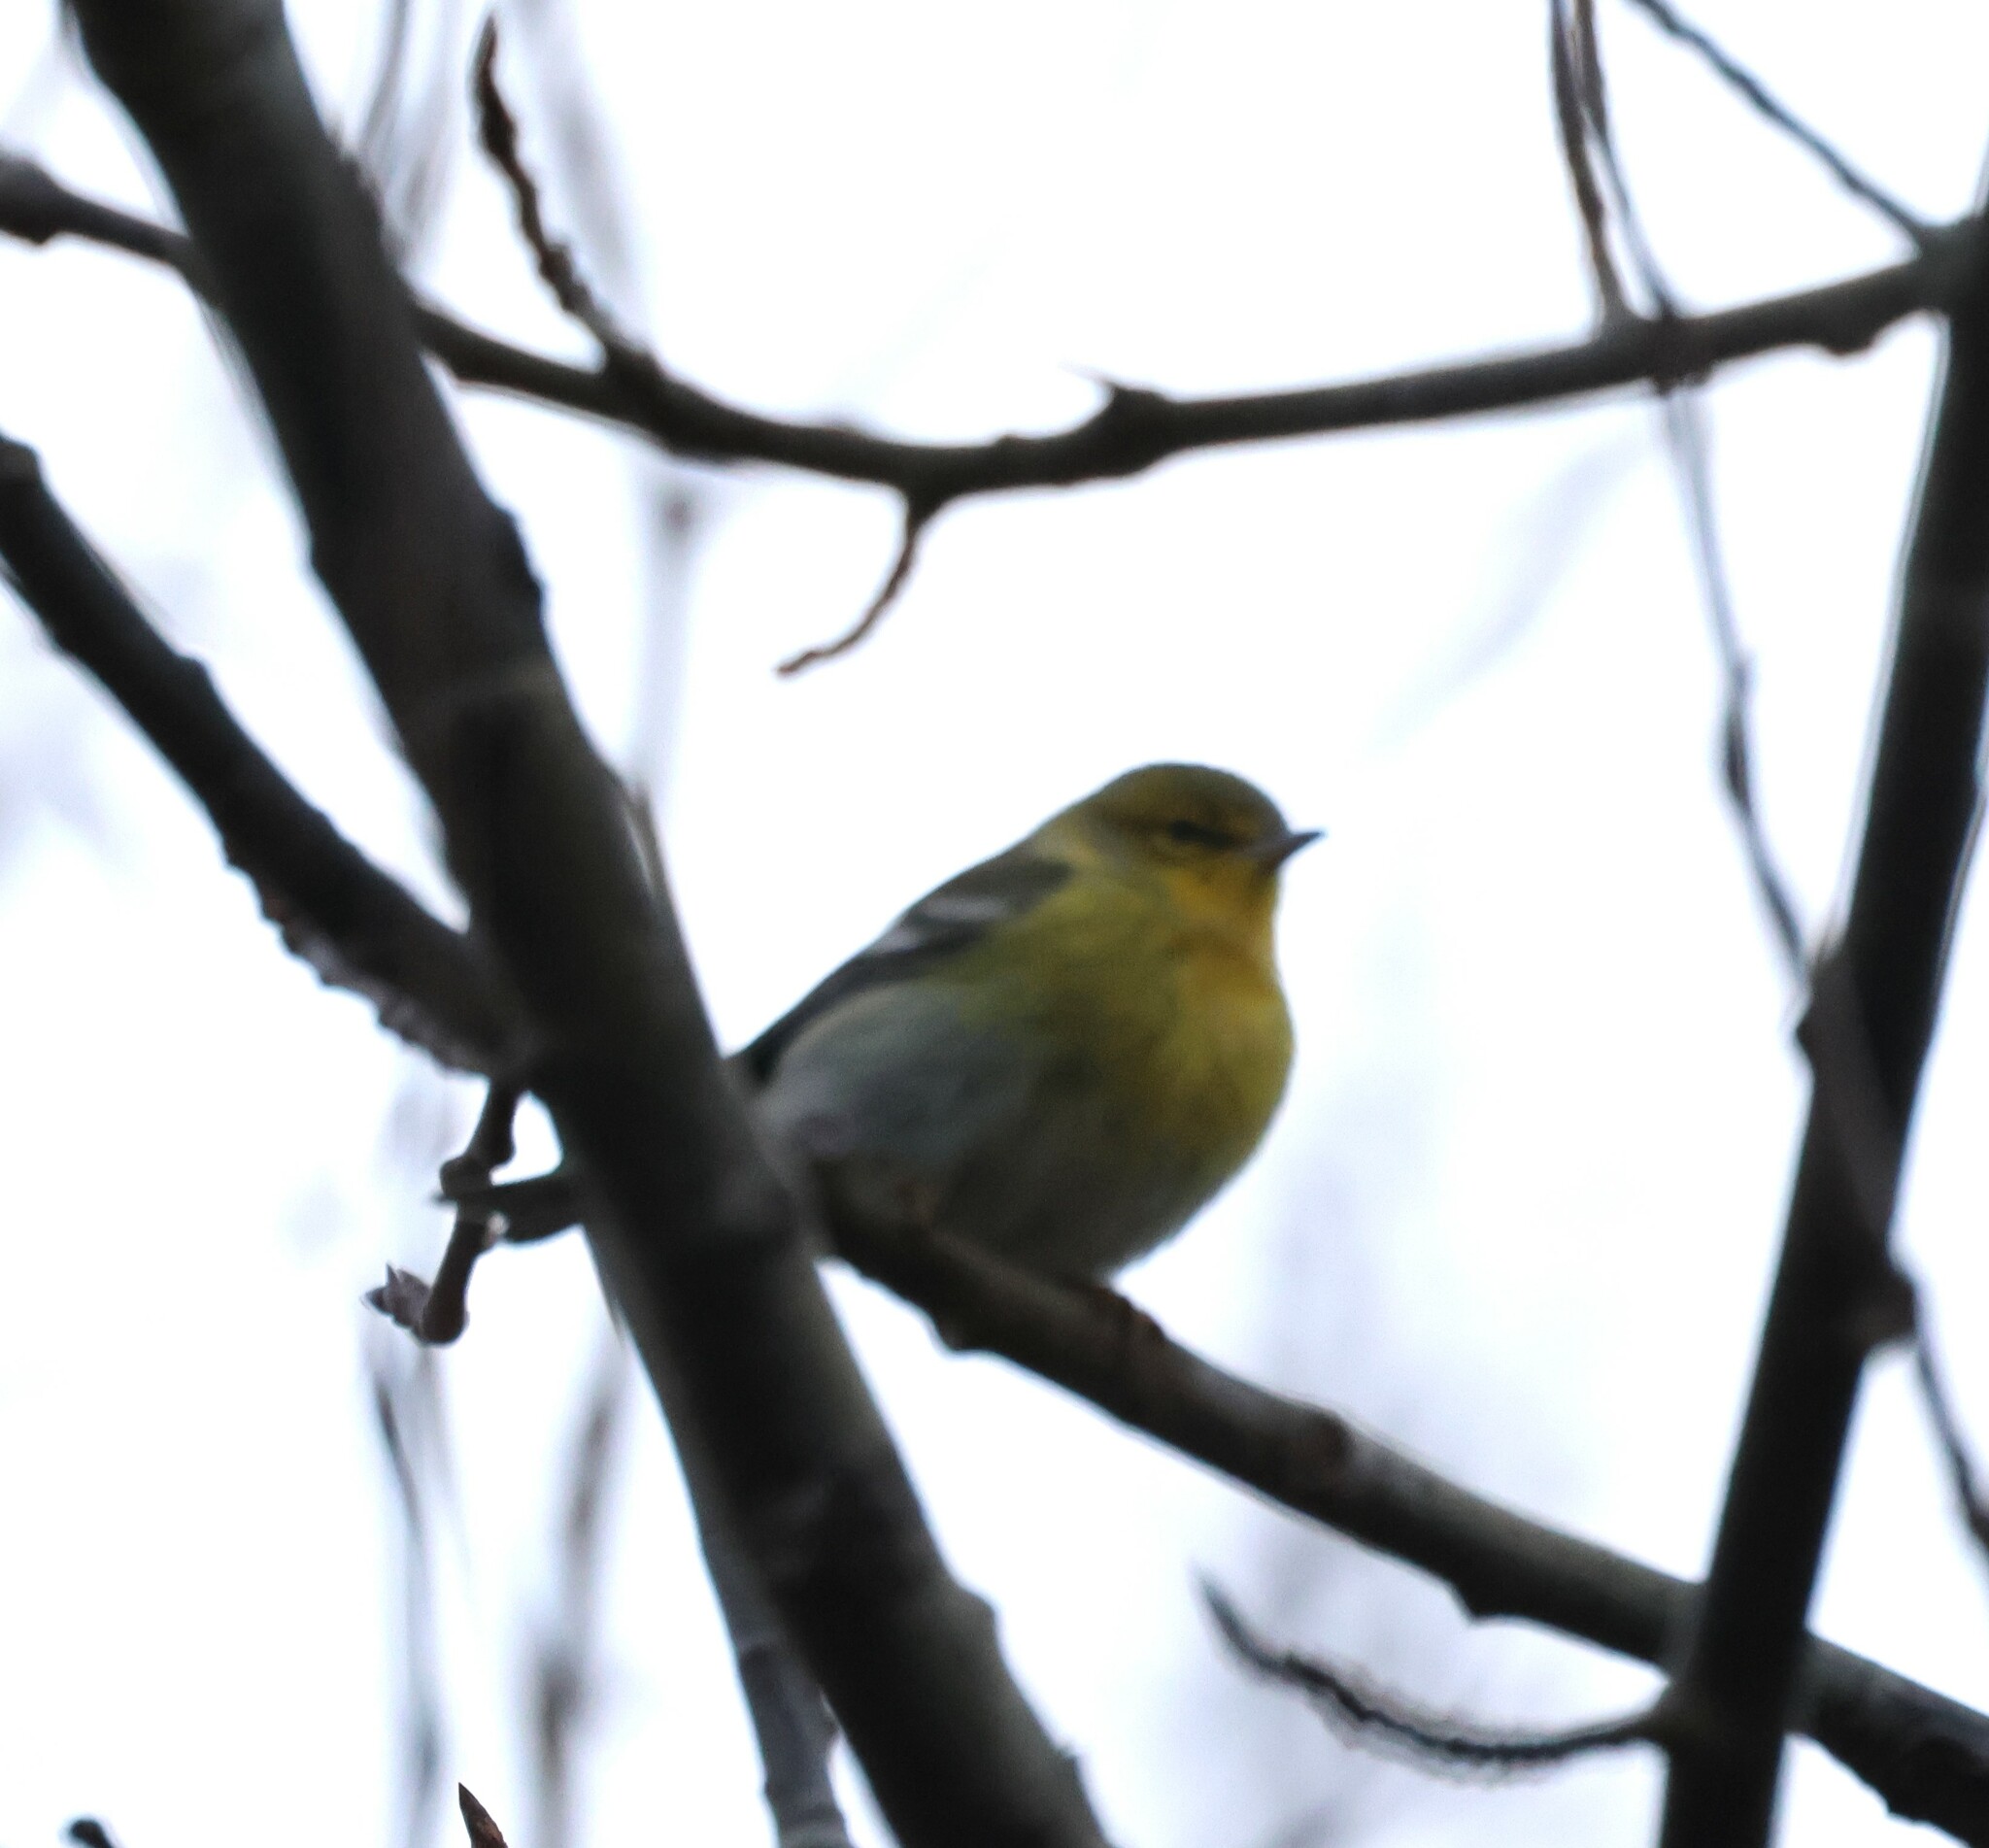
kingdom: Animalia
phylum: Chordata
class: Aves
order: Passeriformes
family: Parulidae
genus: Setophaga
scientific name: Setophaga pinus
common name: Pine warbler
